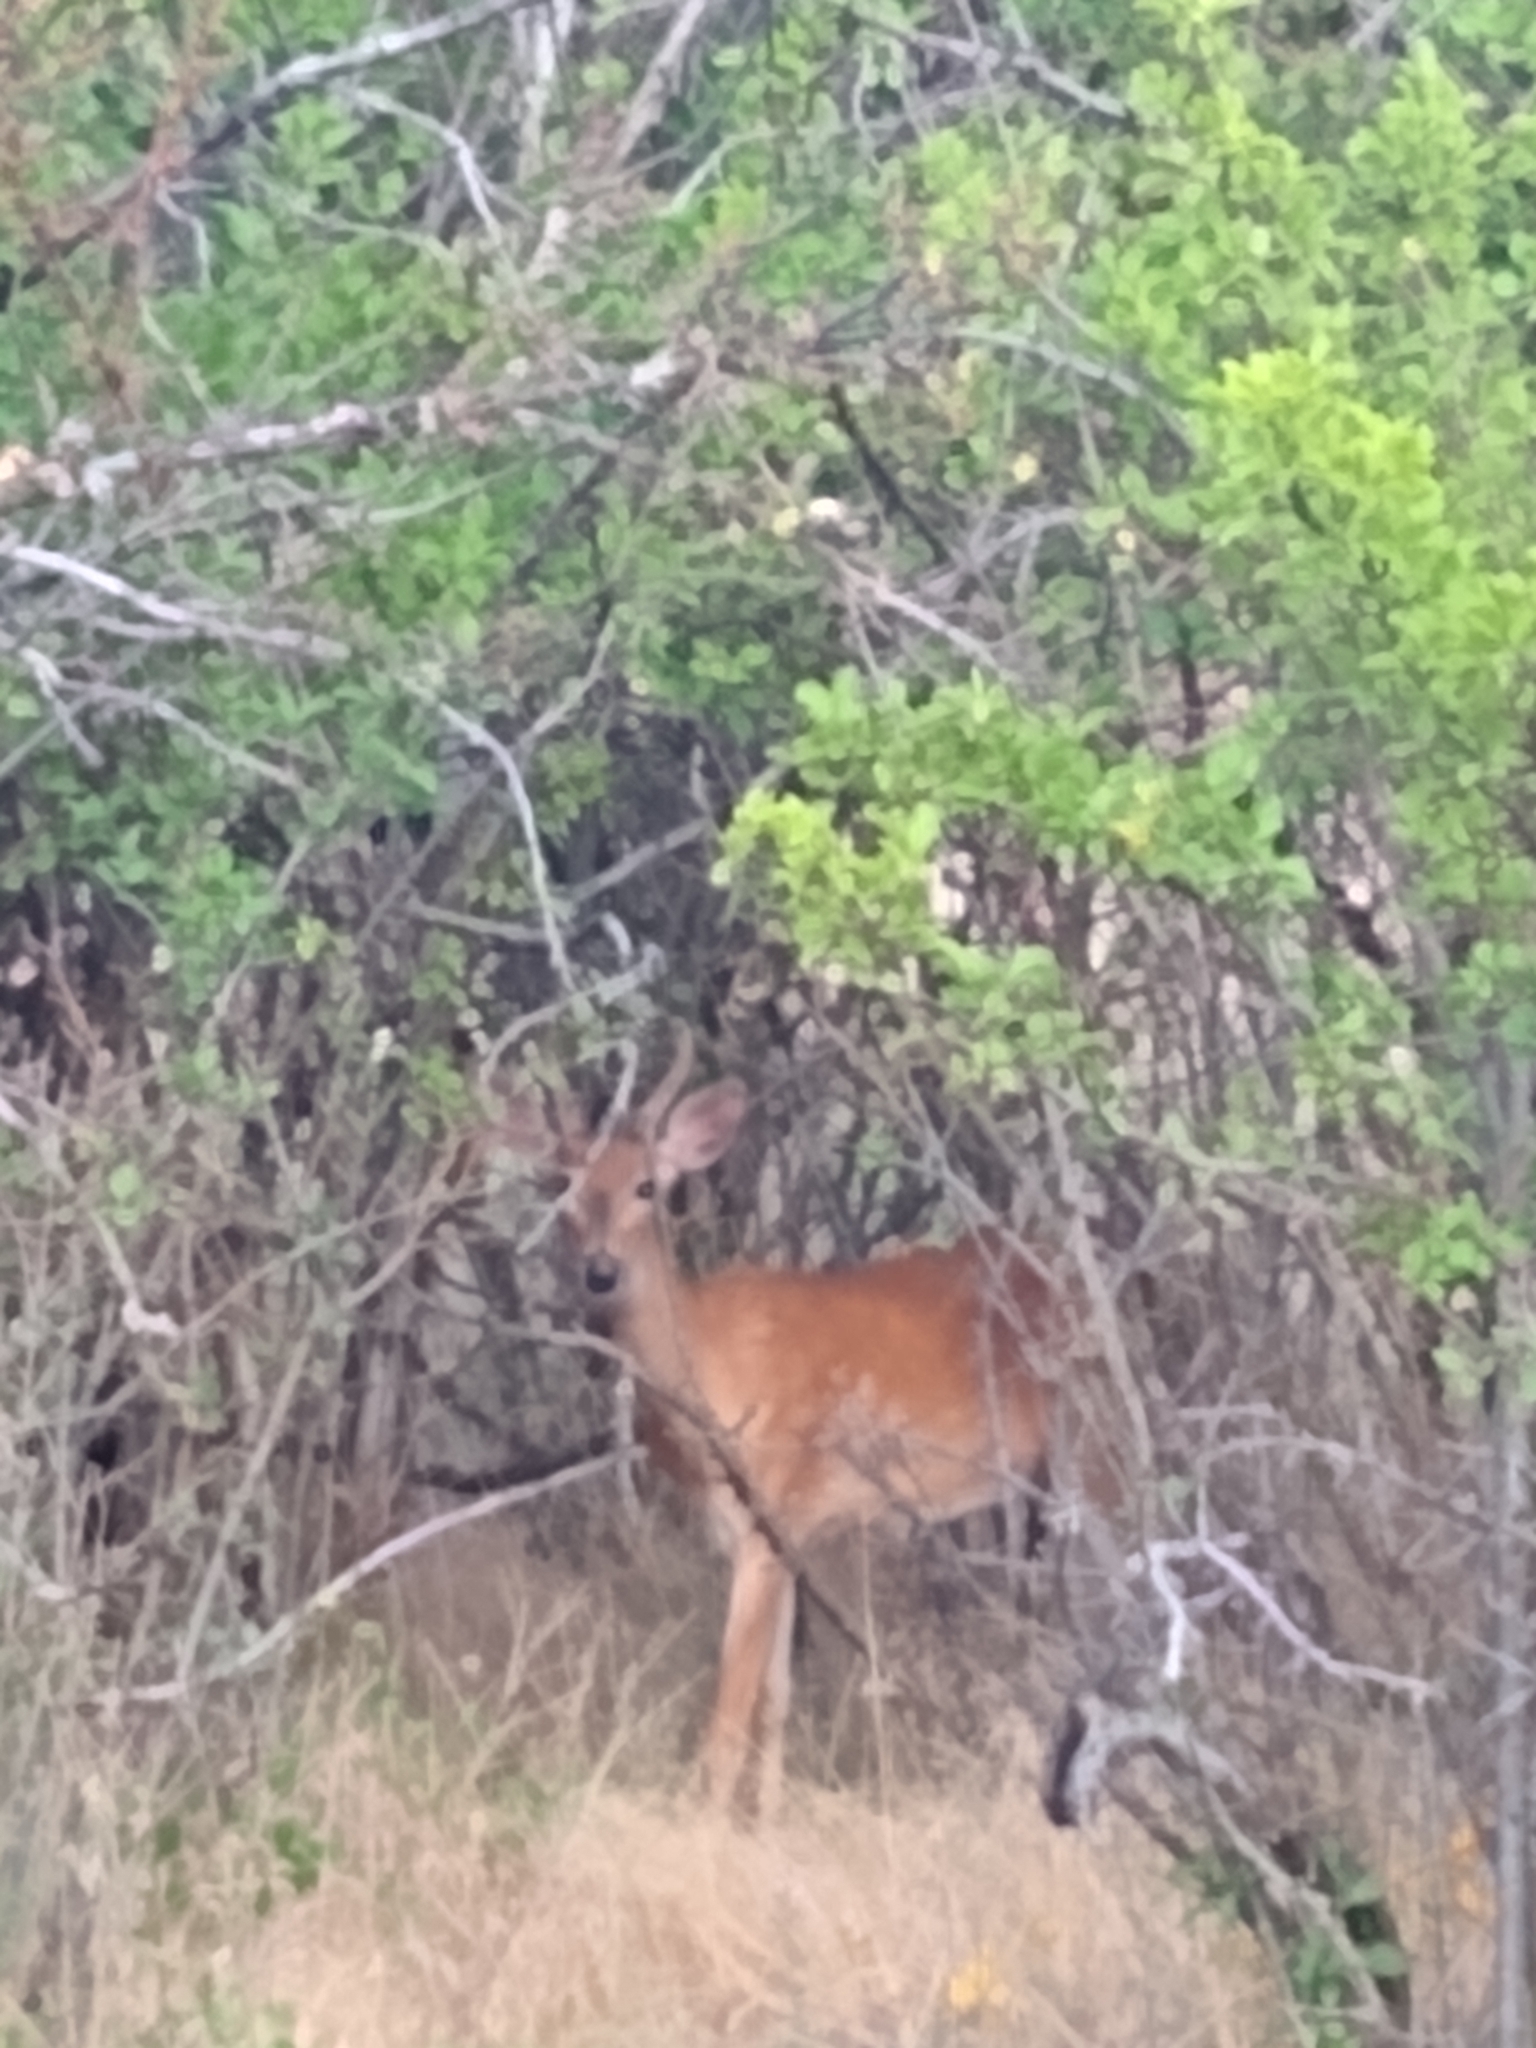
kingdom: Animalia
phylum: Chordata
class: Mammalia
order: Artiodactyla
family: Cervidae
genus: Odocoileus
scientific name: Odocoileus virginianus
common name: White-tailed deer
